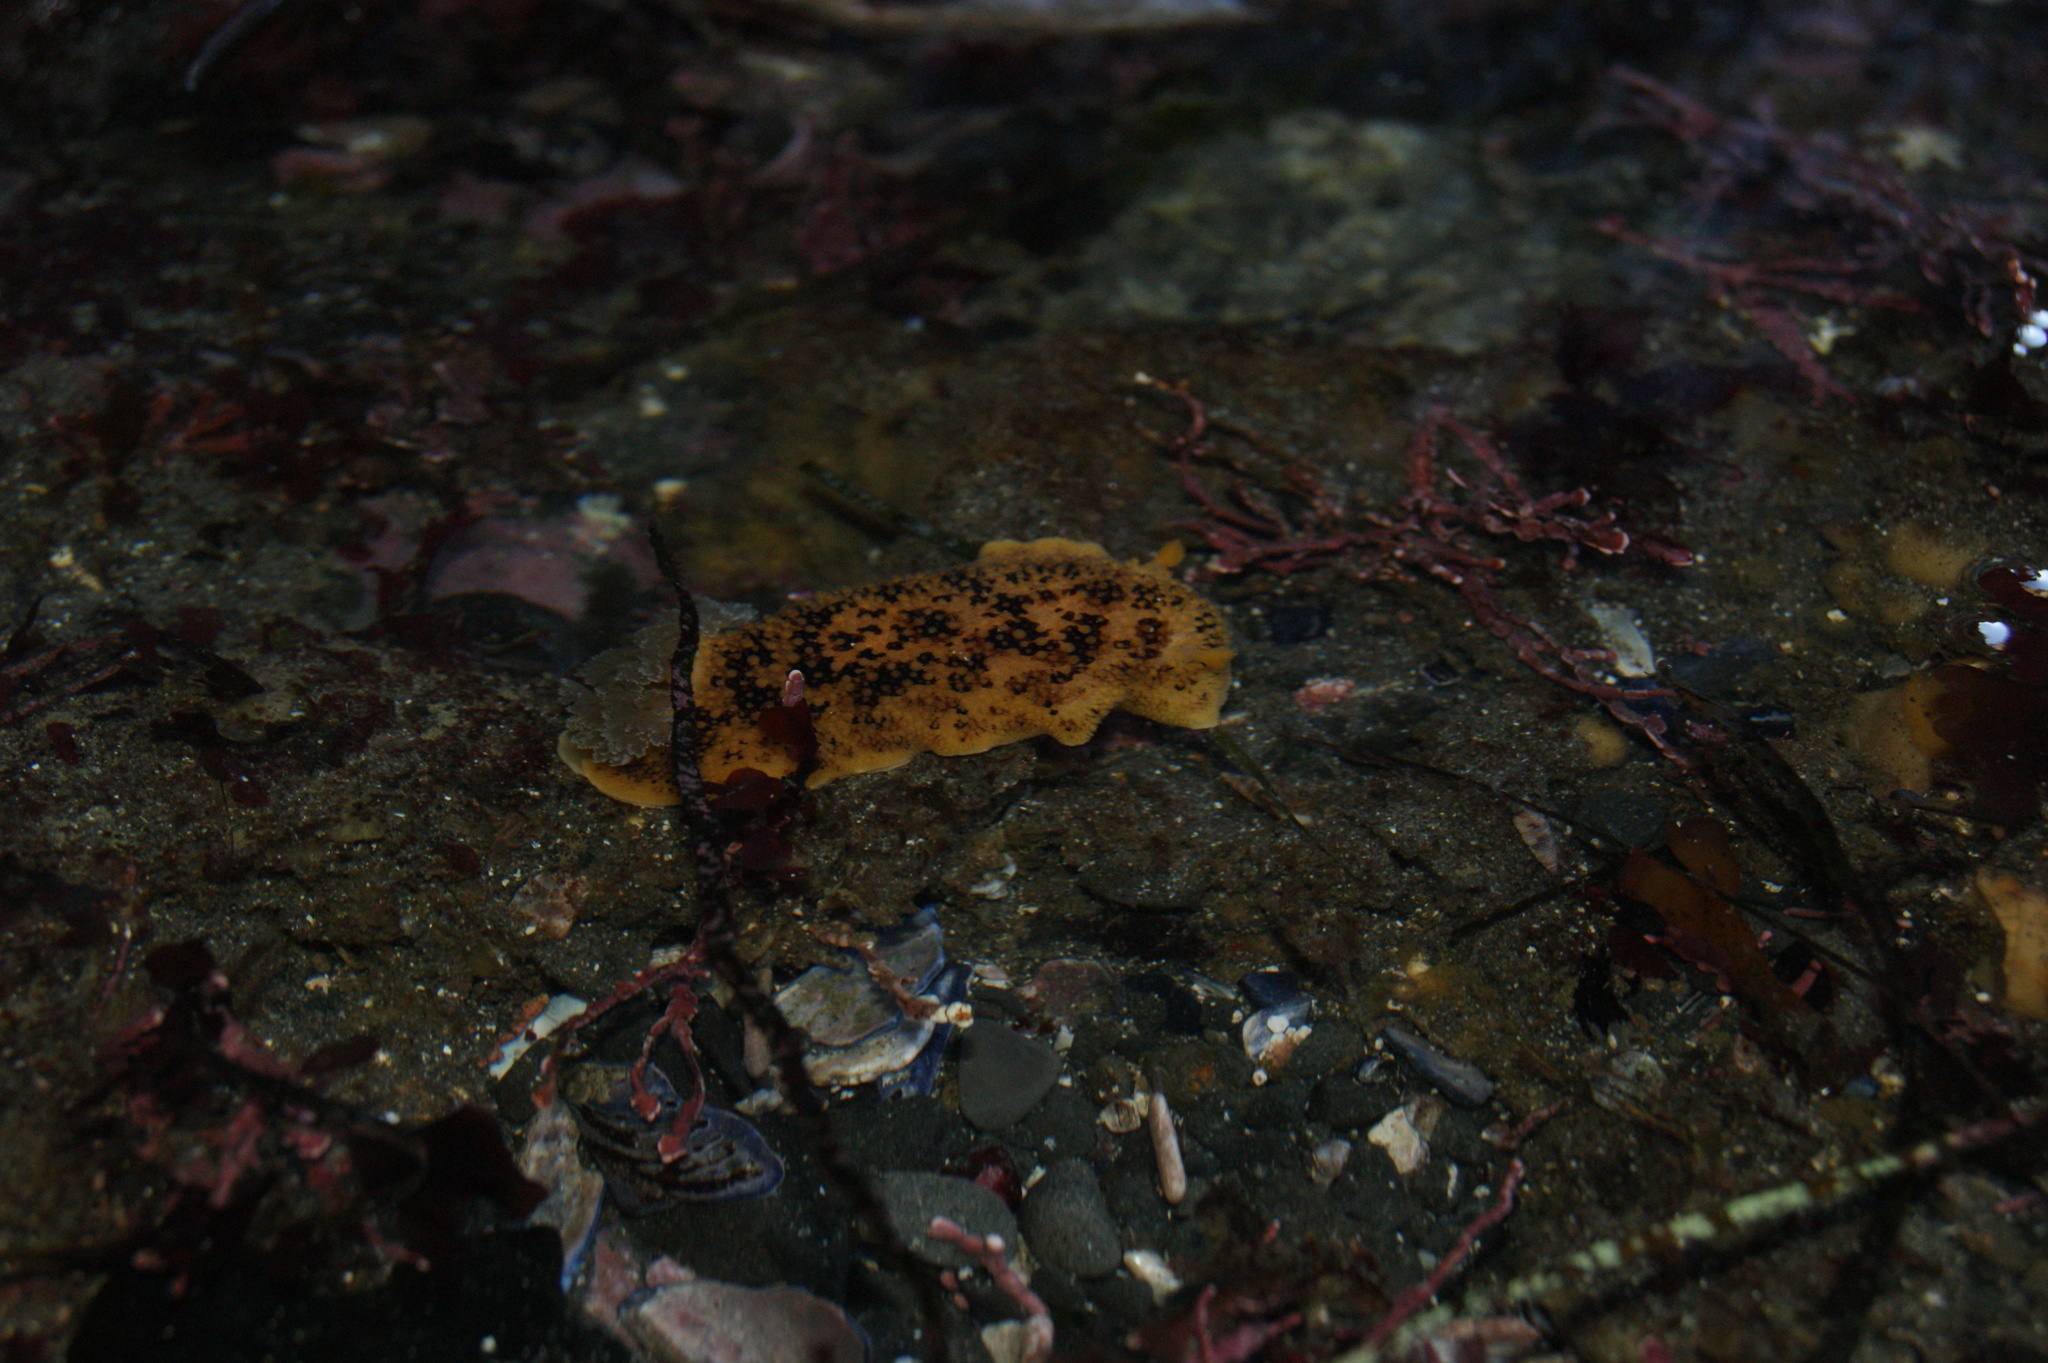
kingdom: Animalia
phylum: Mollusca
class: Gastropoda
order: Nudibranchia
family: Discodorididae
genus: Peltodoris
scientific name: Peltodoris nobilis
